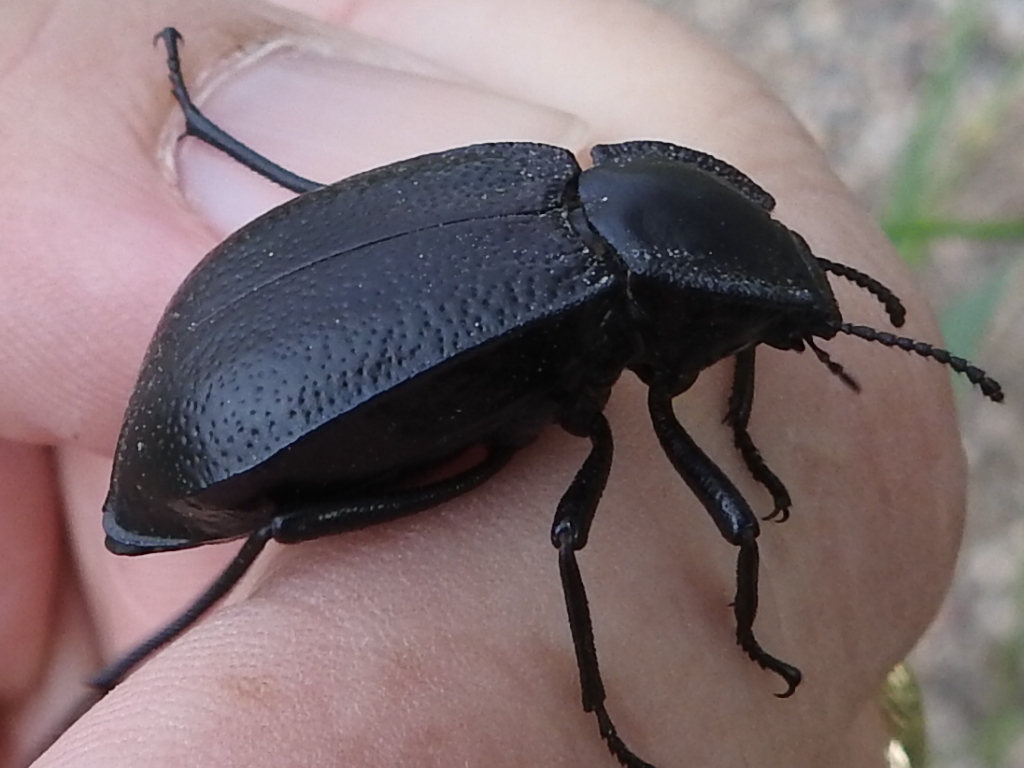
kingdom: Animalia
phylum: Arthropoda
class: Insecta
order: Coleoptera
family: Tenebrionidae
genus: Stenomorpha
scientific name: Stenomorpha marginata
